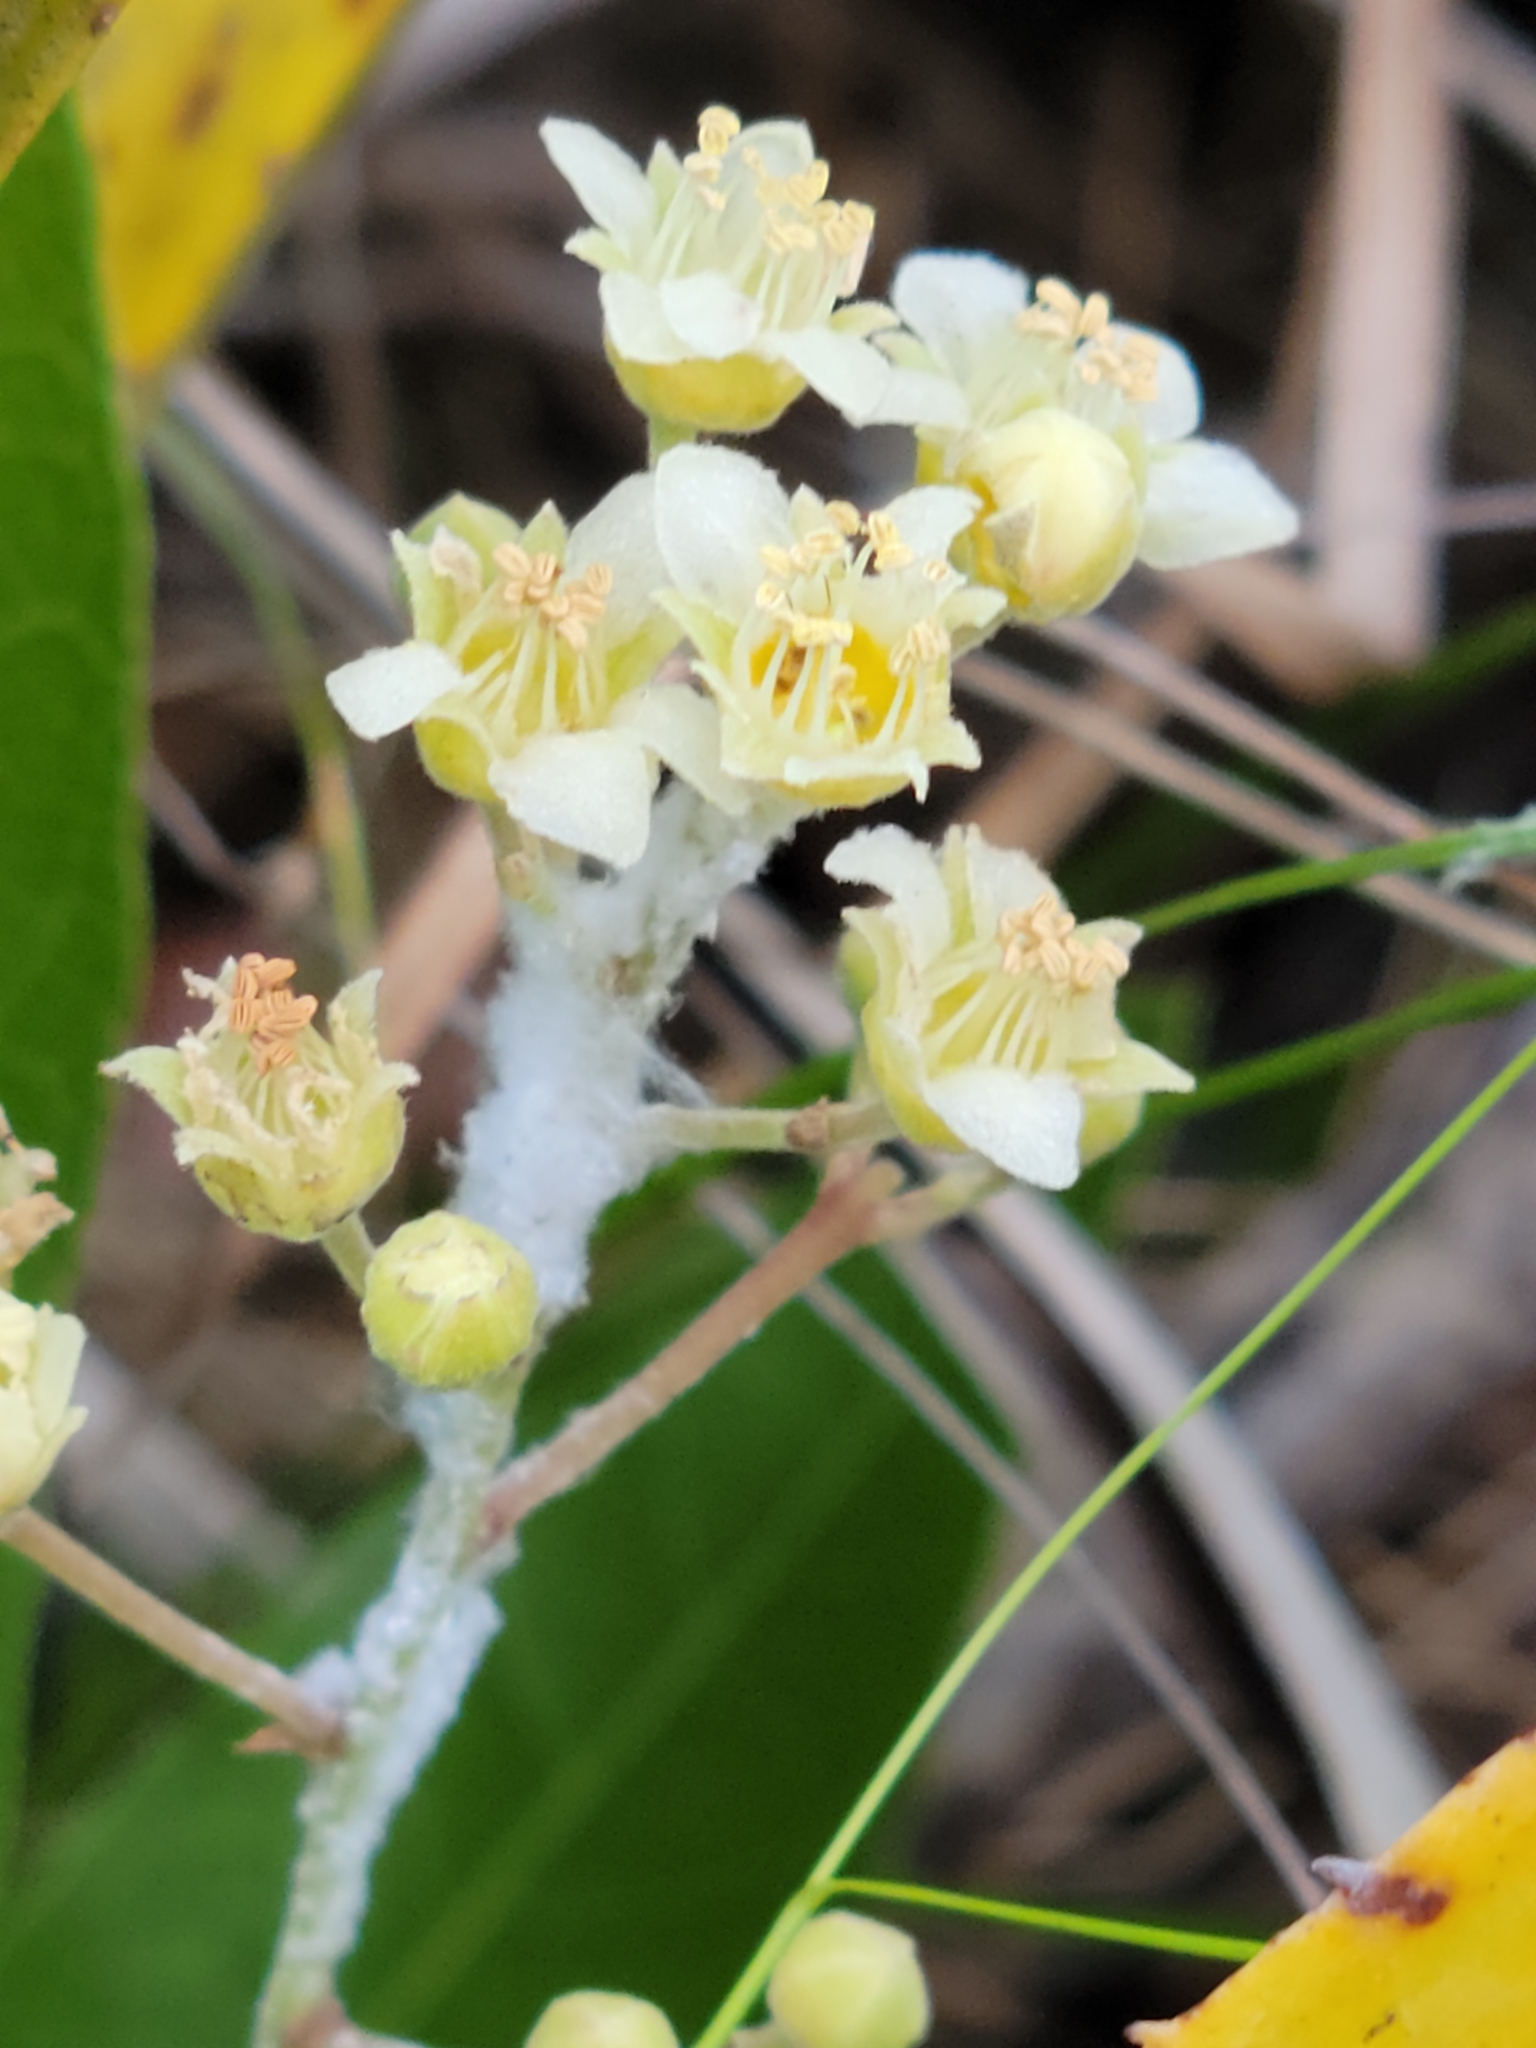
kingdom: Plantae
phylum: Tracheophyta
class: Magnoliopsida
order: Malpighiales
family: Chrysobalanaceae
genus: Geobalanus
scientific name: Geobalanus oblongifolius
